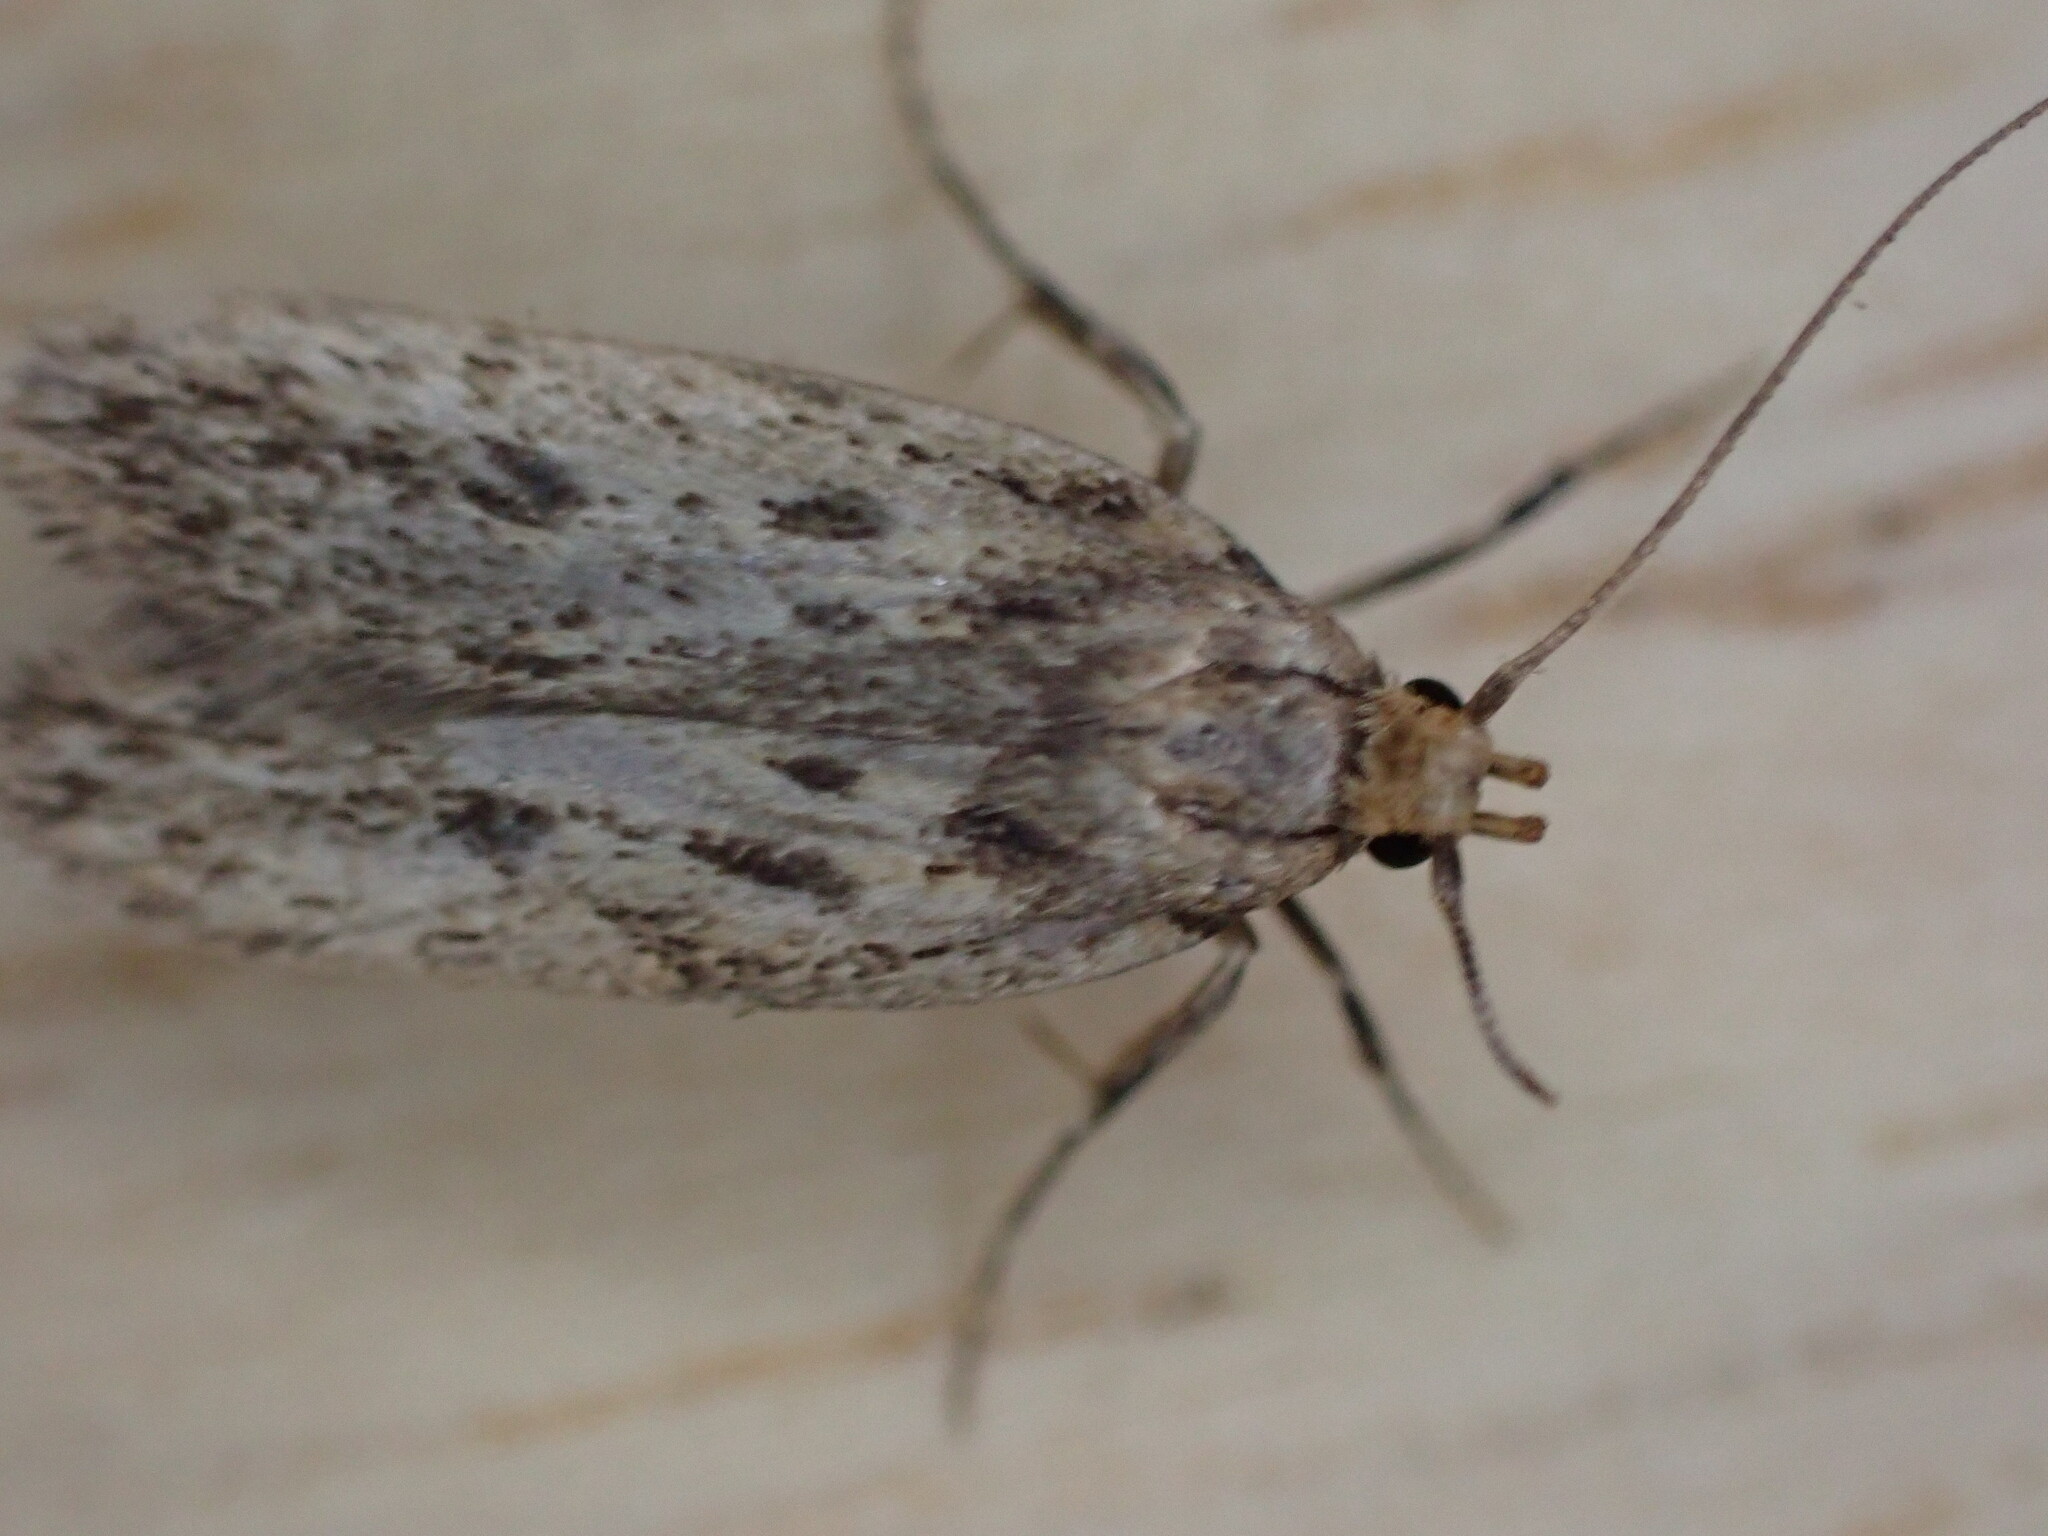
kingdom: Animalia
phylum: Arthropoda
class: Insecta
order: Lepidoptera
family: Oecophoridae
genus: Hofmannophila
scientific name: Hofmannophila pseudospretella
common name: Brown house moth
